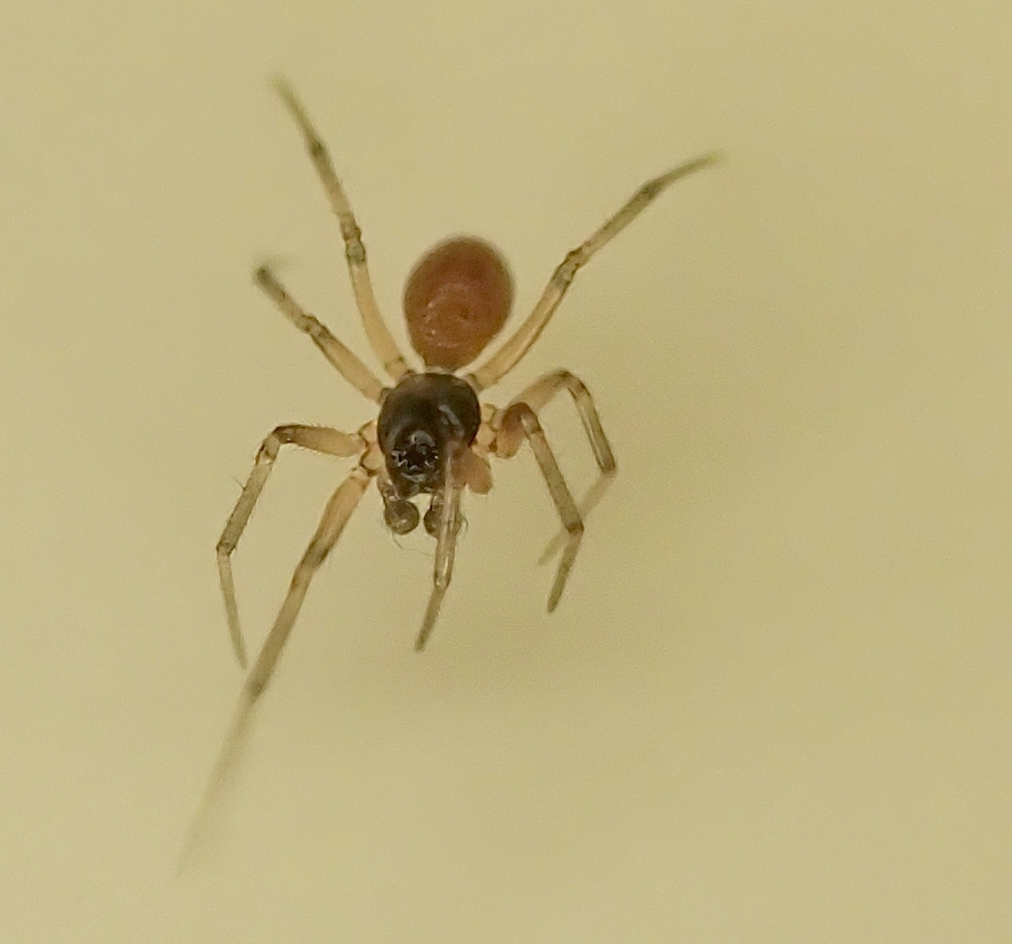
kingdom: Animalia
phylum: Arthropoda
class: Arachnida
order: Araneae
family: Linyphiidae
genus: Ostearius
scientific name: Ostearius melanopygius
